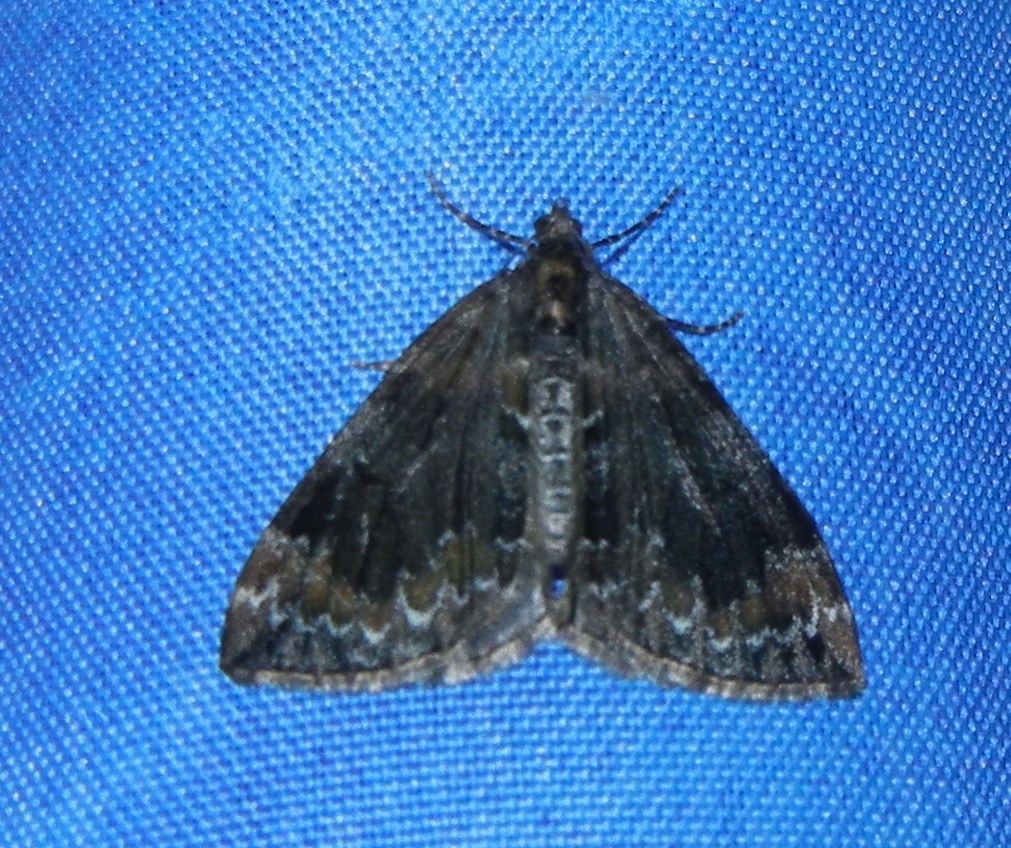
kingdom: Animalia
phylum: Arthropoda
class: Insecta
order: Lepidoptera
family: Geometridae
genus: Dysstroma
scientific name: Dysstroma truncata
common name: Common marbled carpet
